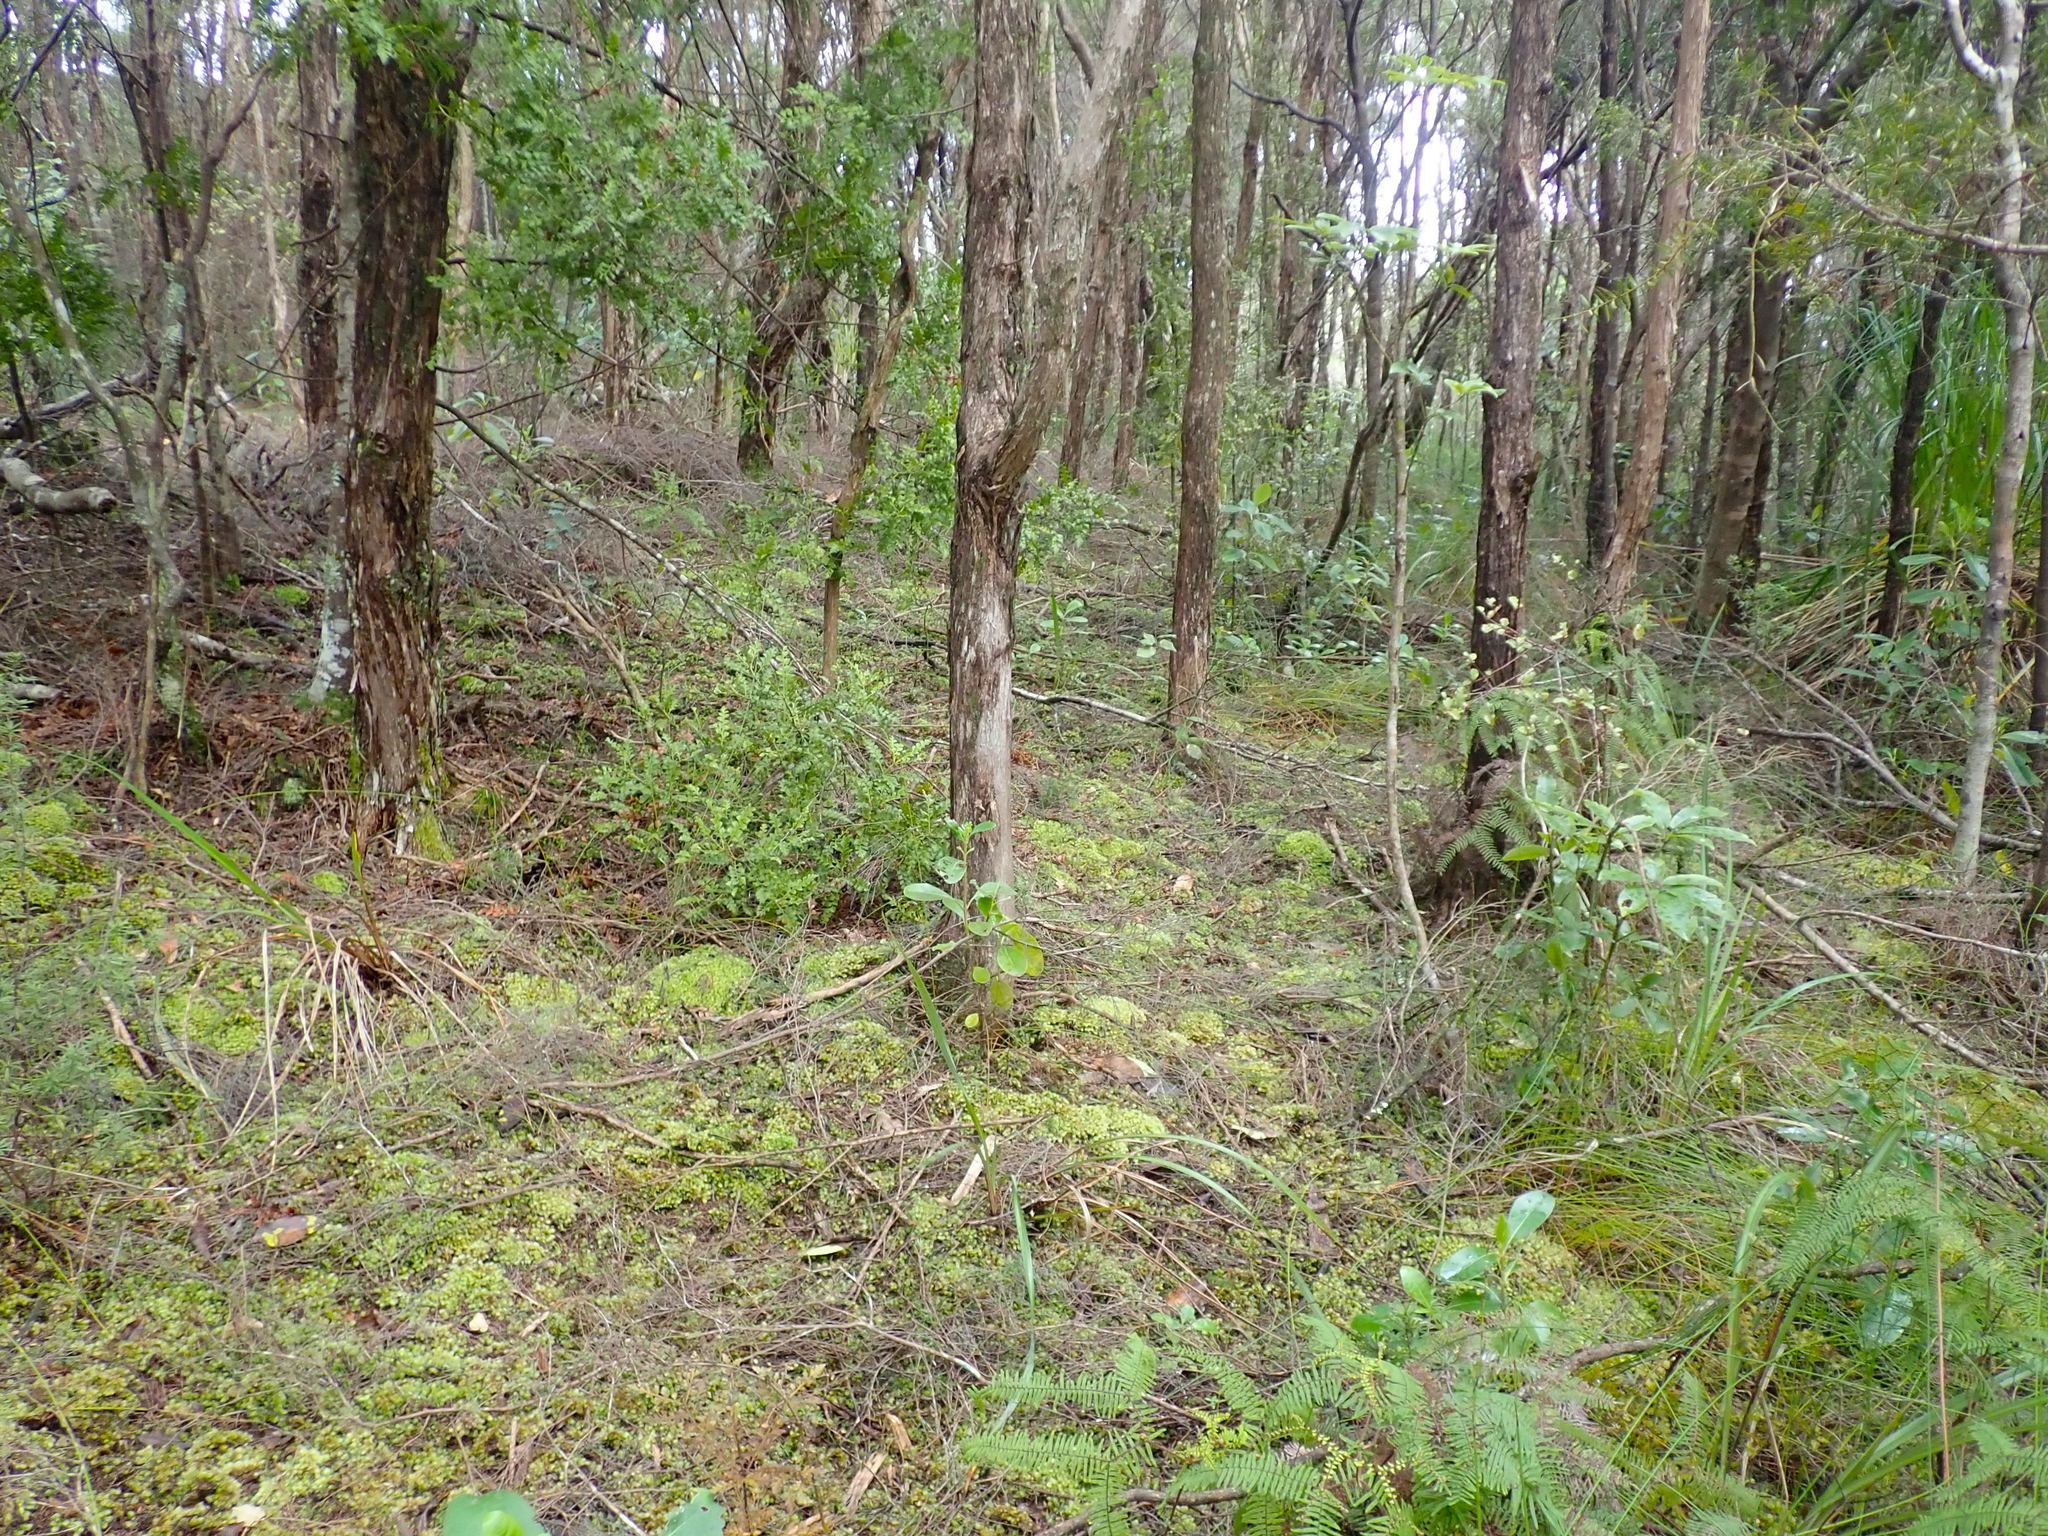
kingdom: Plantae
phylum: Bryophyta
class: Bryopsida
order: Hypnales
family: Brachytheciaceae
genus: Pseudoscleropodium
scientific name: Pseudoscleropodium purum
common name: Neat feather-moss
